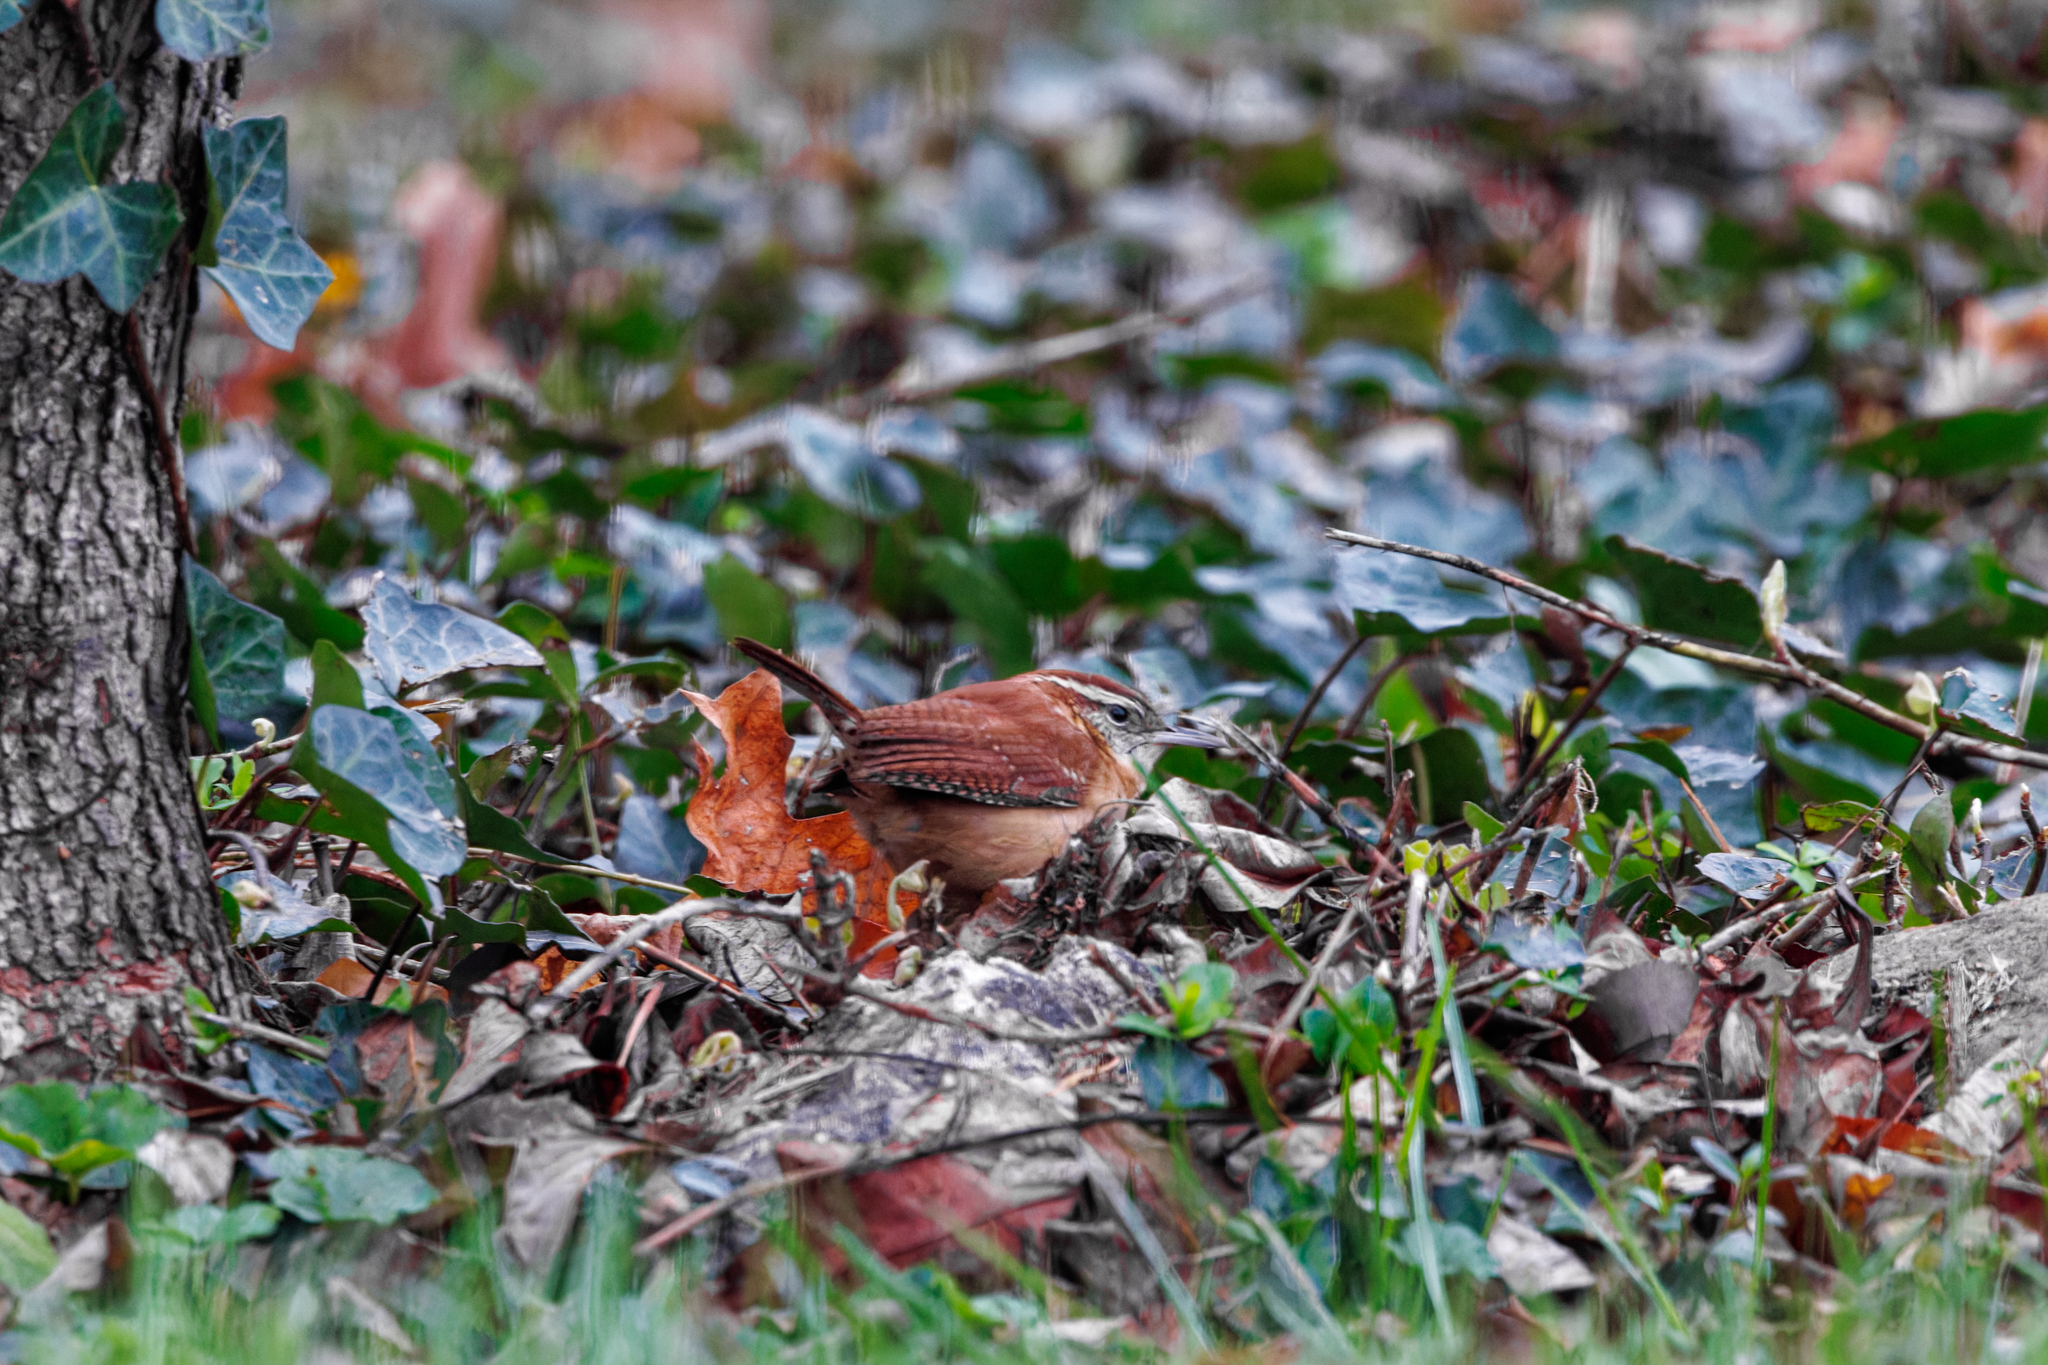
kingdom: Animalia
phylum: Chordata
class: Aves
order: Passeriformes
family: Troglodytidae
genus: Thryothorus
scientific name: Thryothorus ludovicianus
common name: Carolina wren
